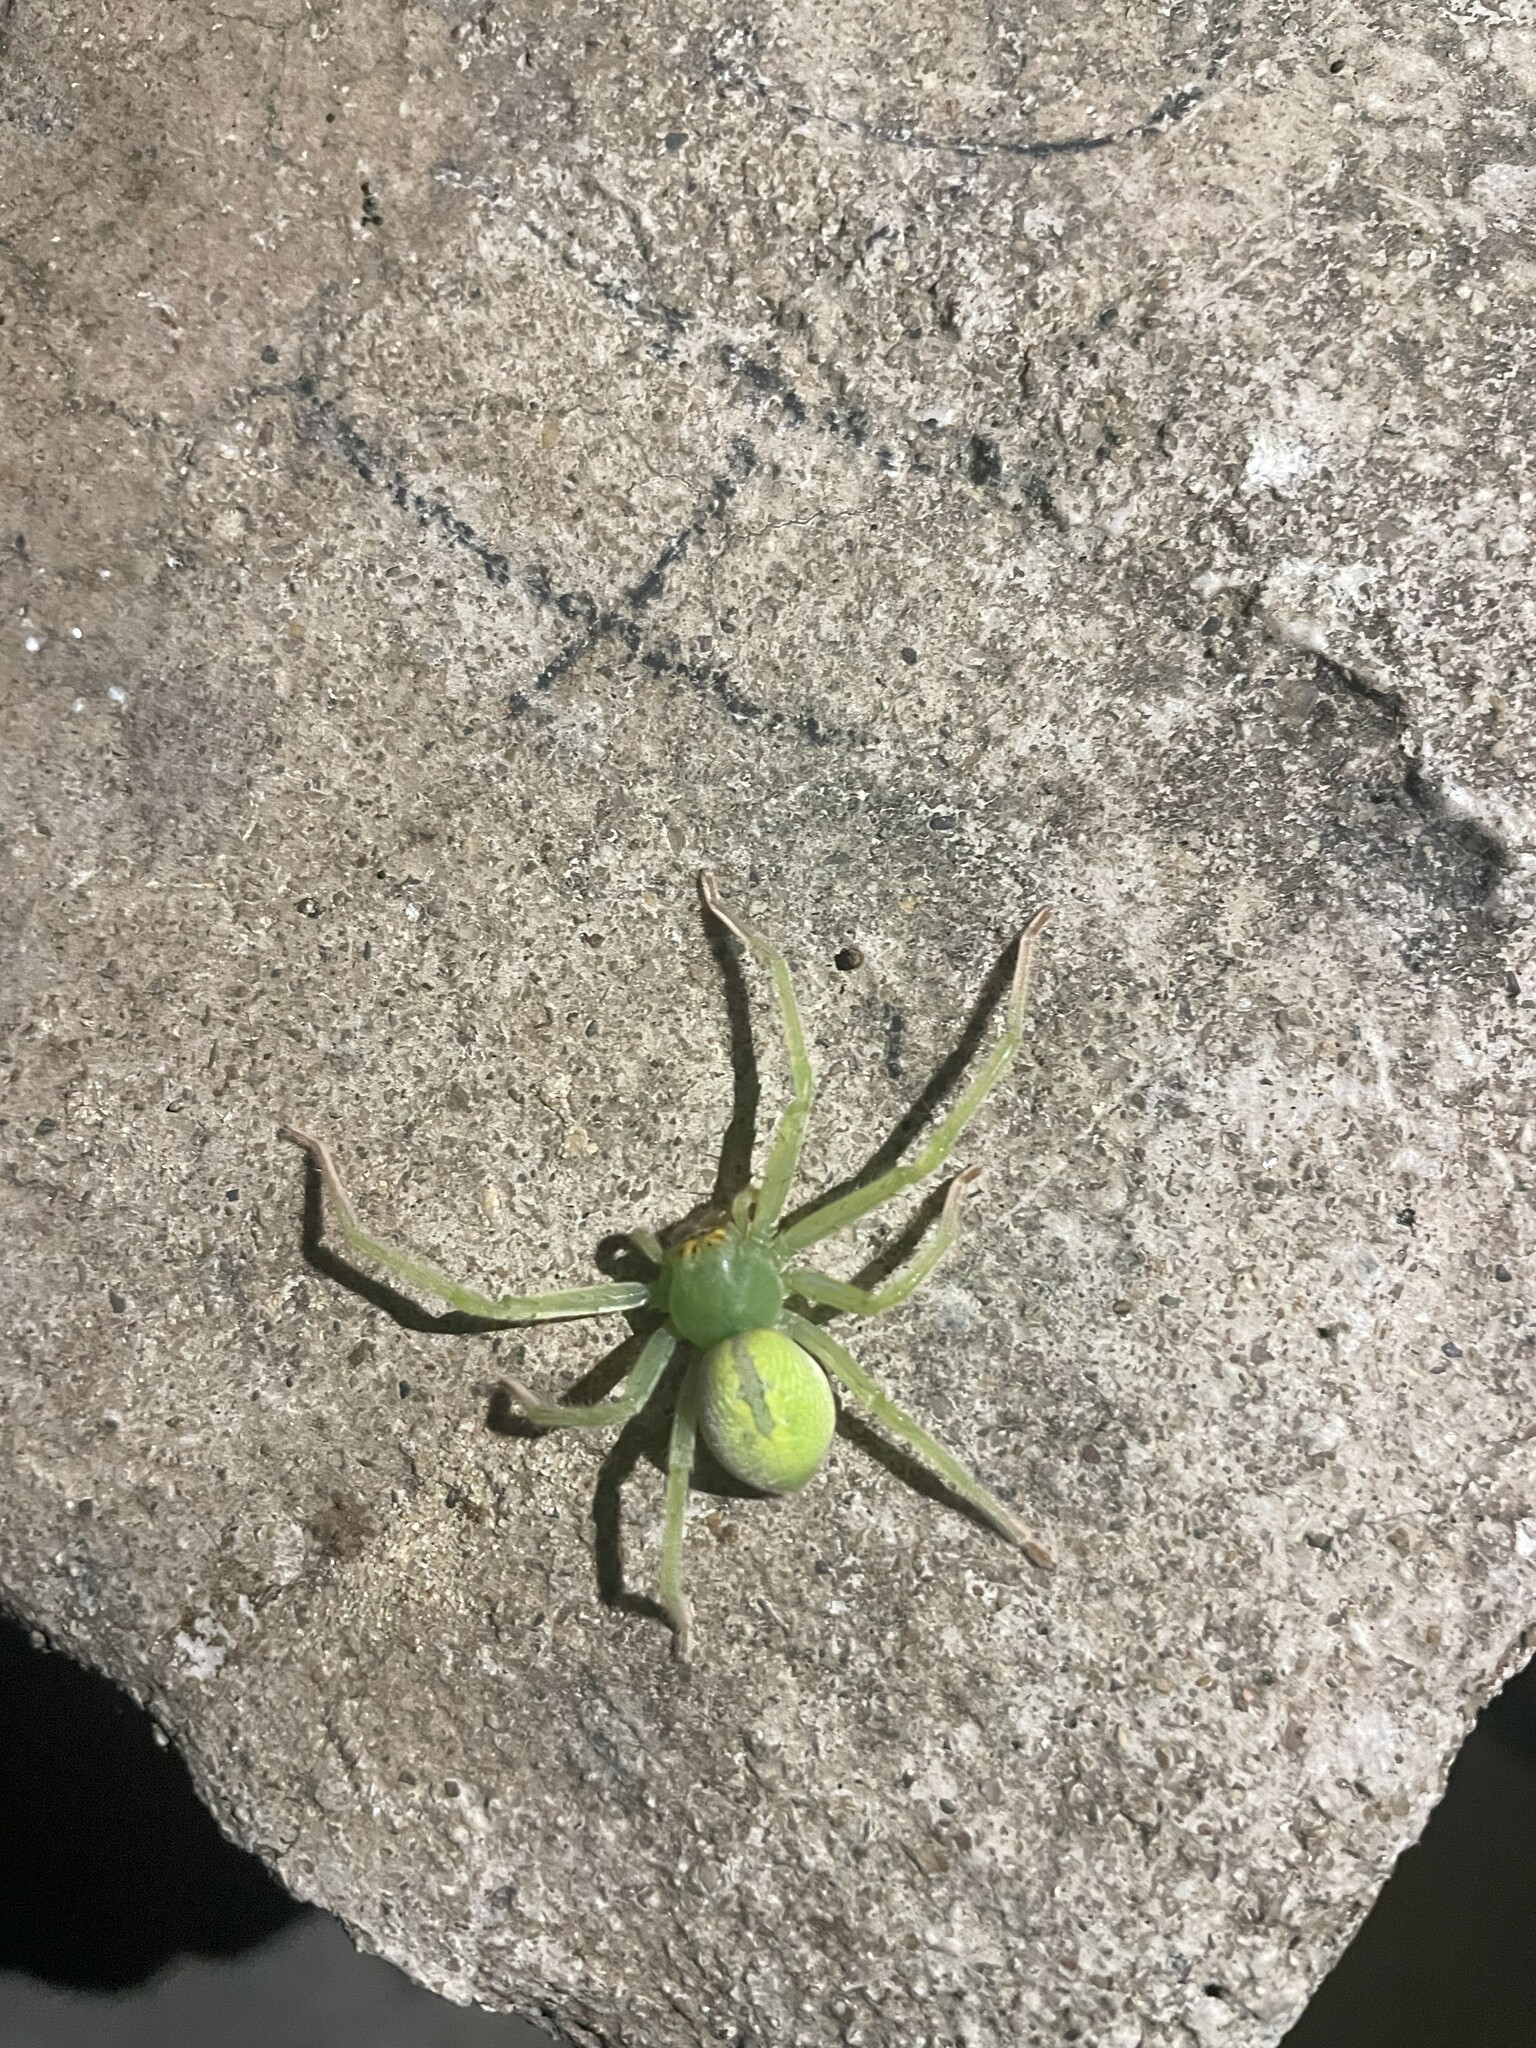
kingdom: Animalia
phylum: Arthropoda
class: Arachnida
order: Araneae
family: Sparassidae
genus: Olios
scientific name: Olios auricomis
